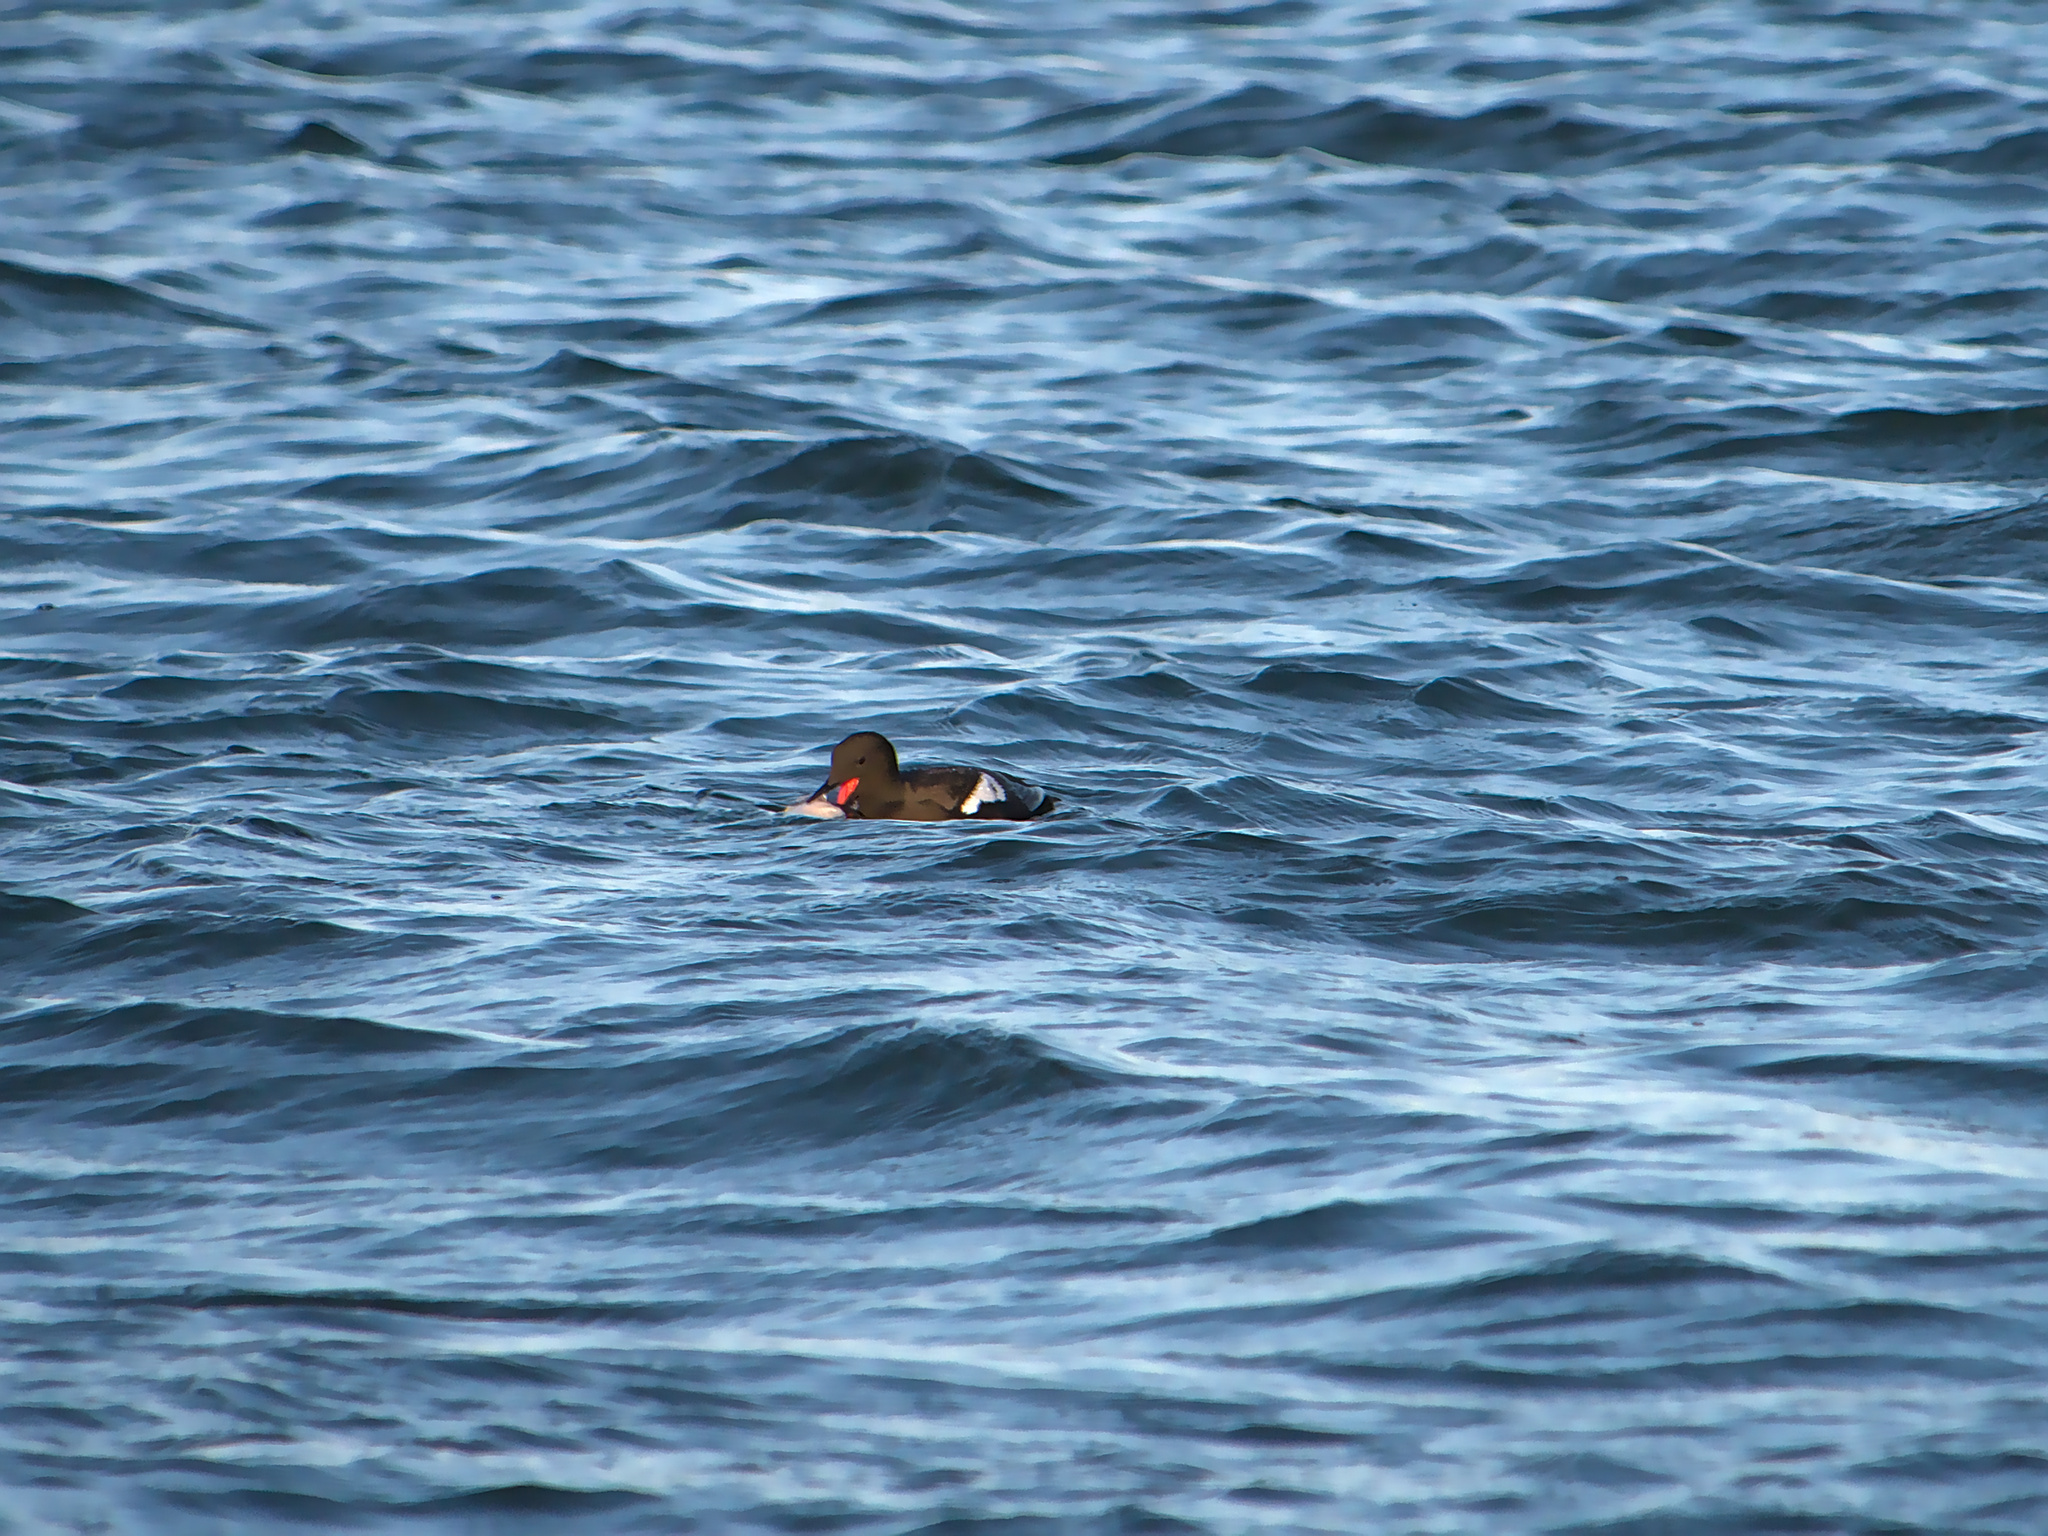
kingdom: Animalia
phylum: Chordata
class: Aves
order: Charadriiformes
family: Alcidae
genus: Cepphus
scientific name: Cepphus grylle
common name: Black guillemot
